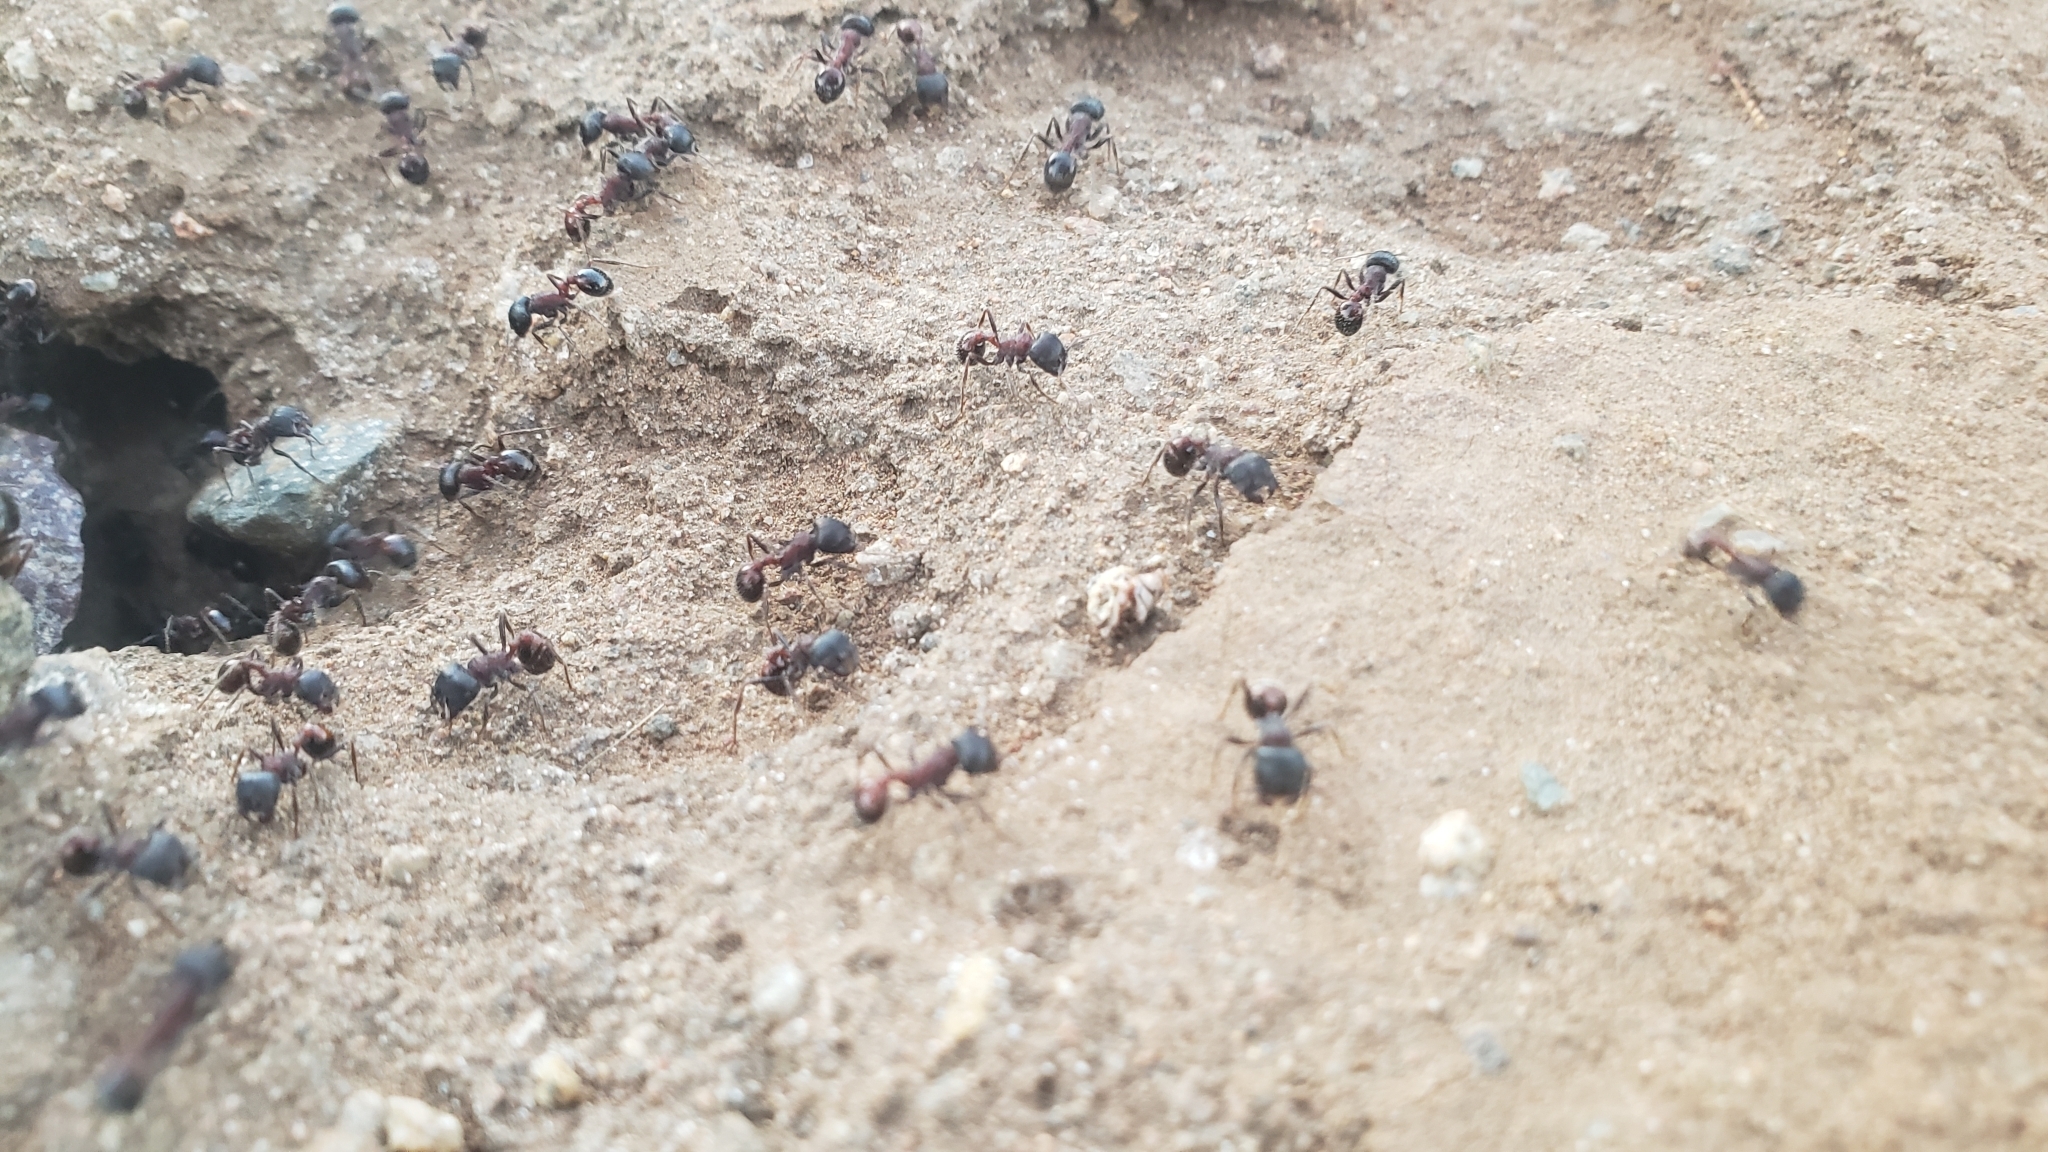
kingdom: Animalia
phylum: Arthropoda
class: Insecta
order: Hymenoptera
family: Formicidae
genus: Pogonomyrmex
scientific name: Pogonomyrmex rugosus
